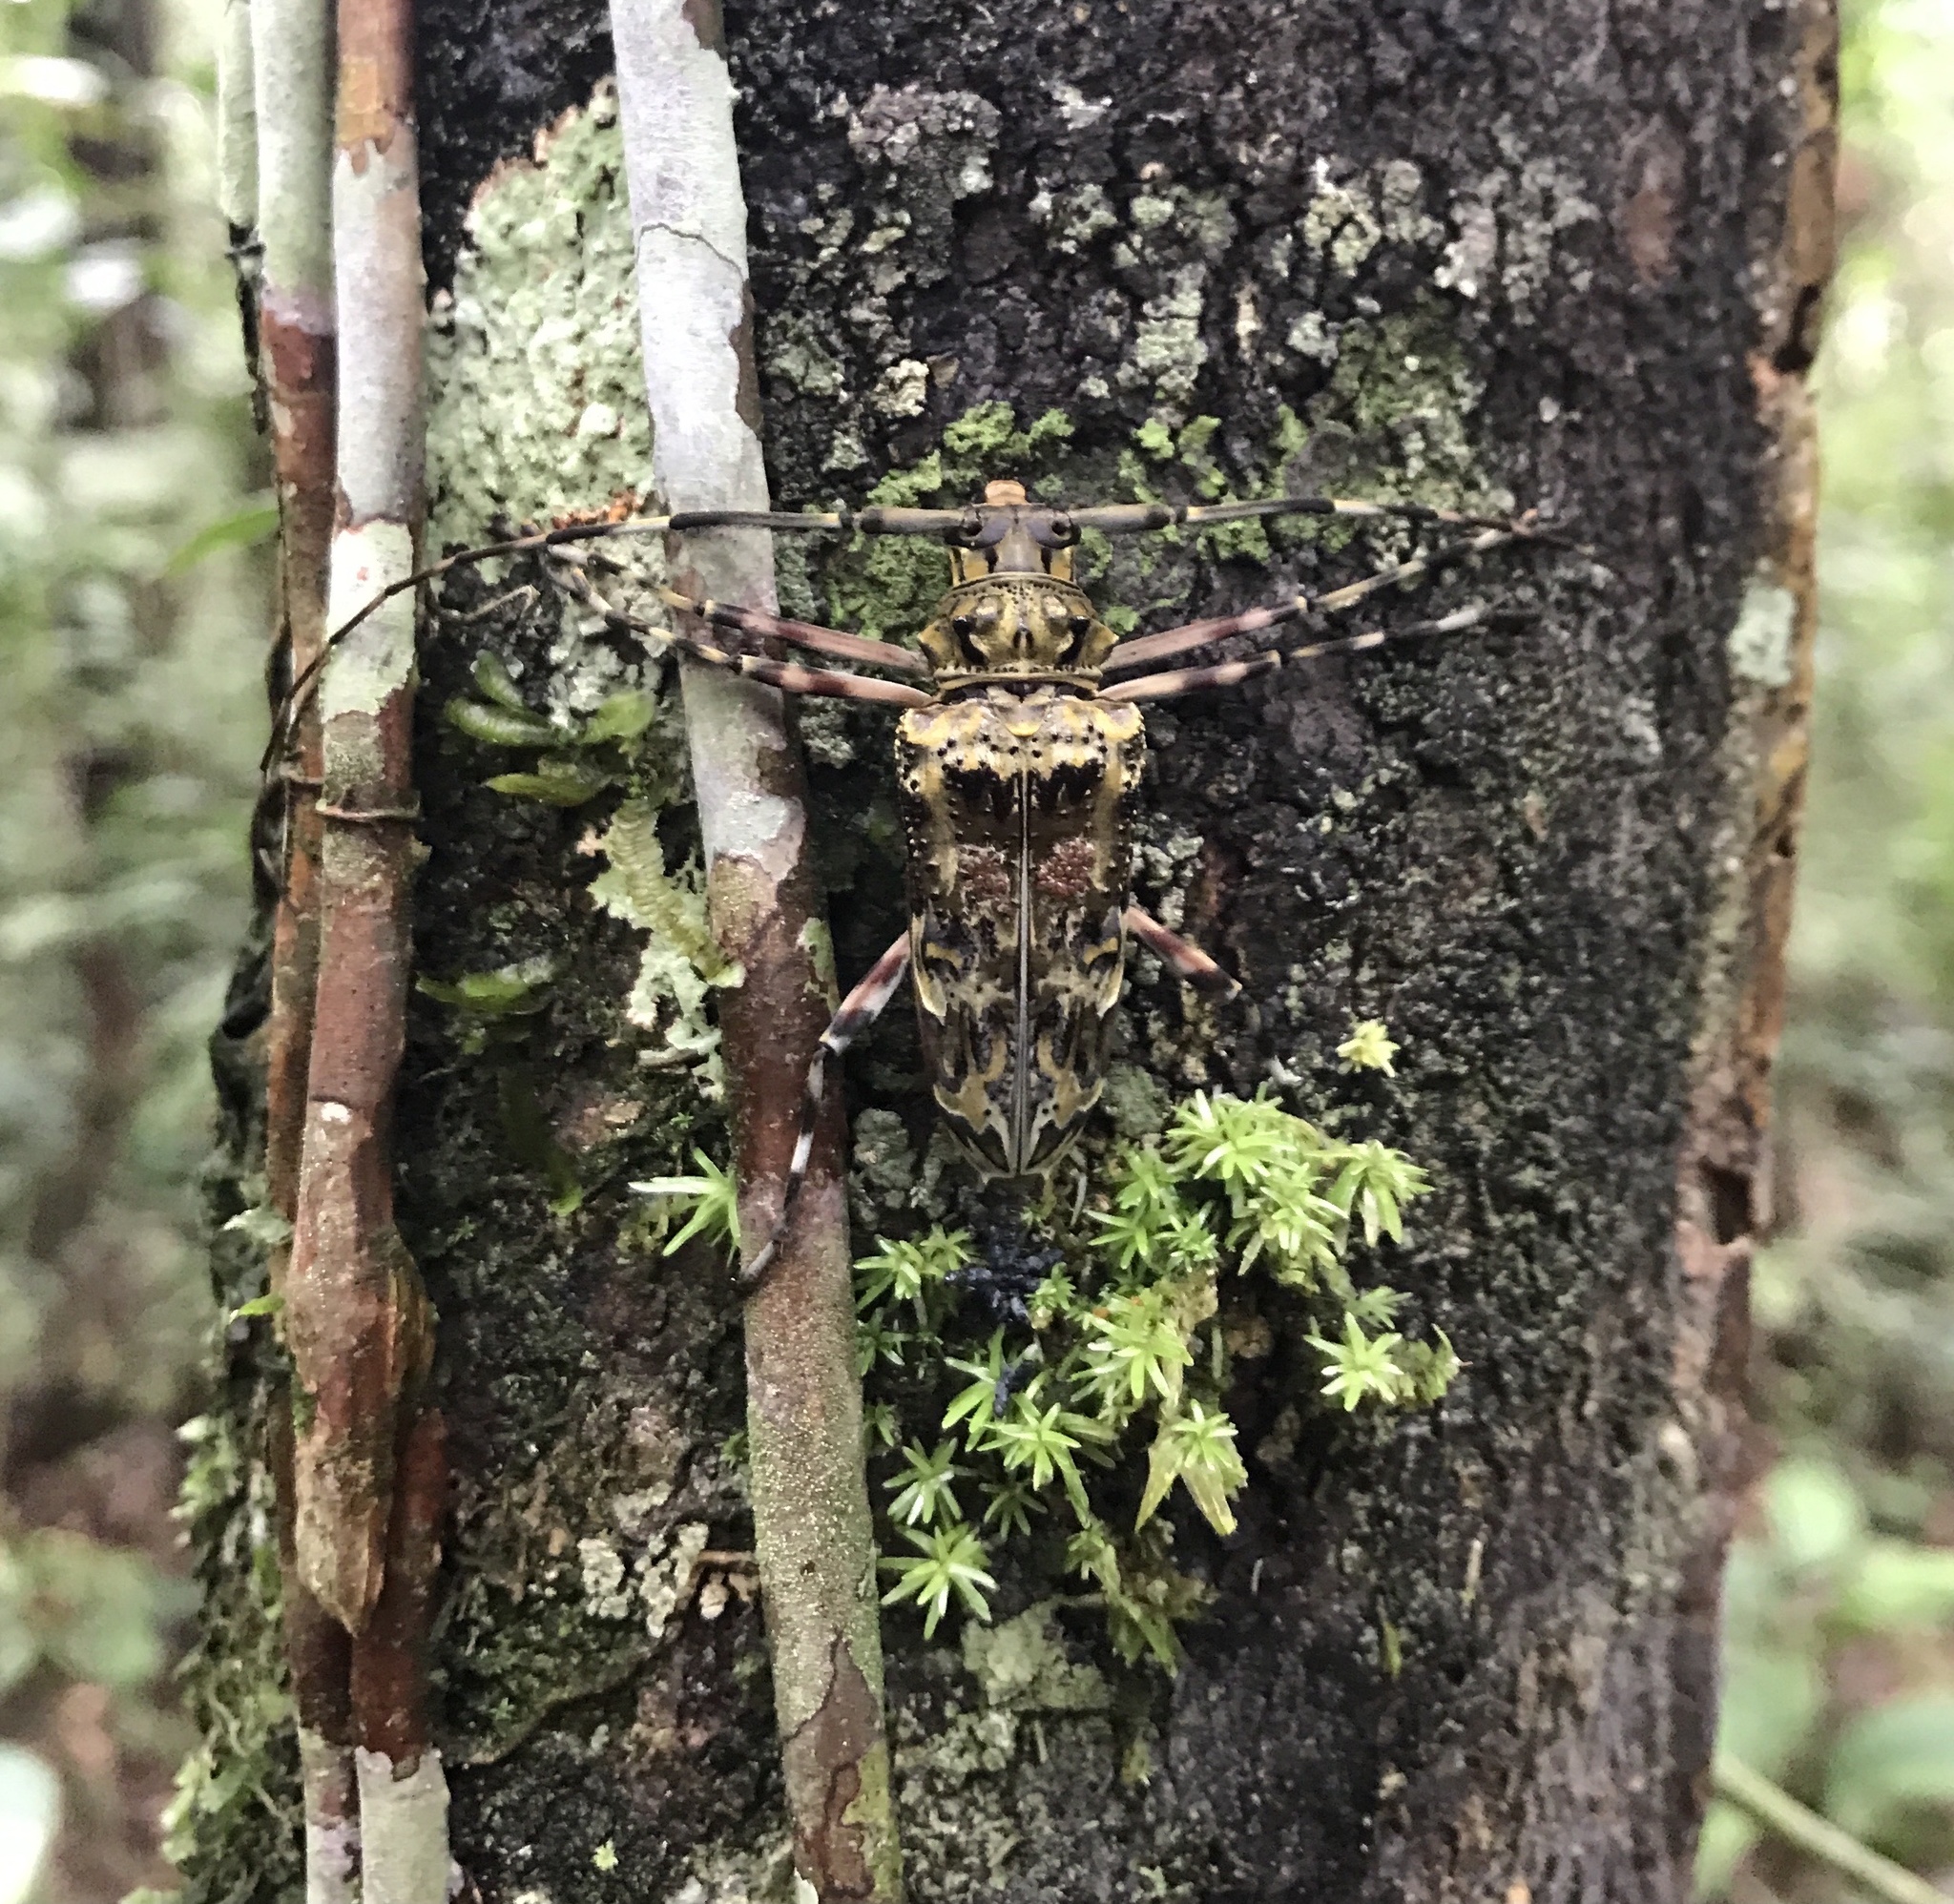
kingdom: Animalia
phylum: Arthropoda
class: Insecta
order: Coleoptera
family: Cerambycidae
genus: Macropophora
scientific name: Macropophora trochlearis
